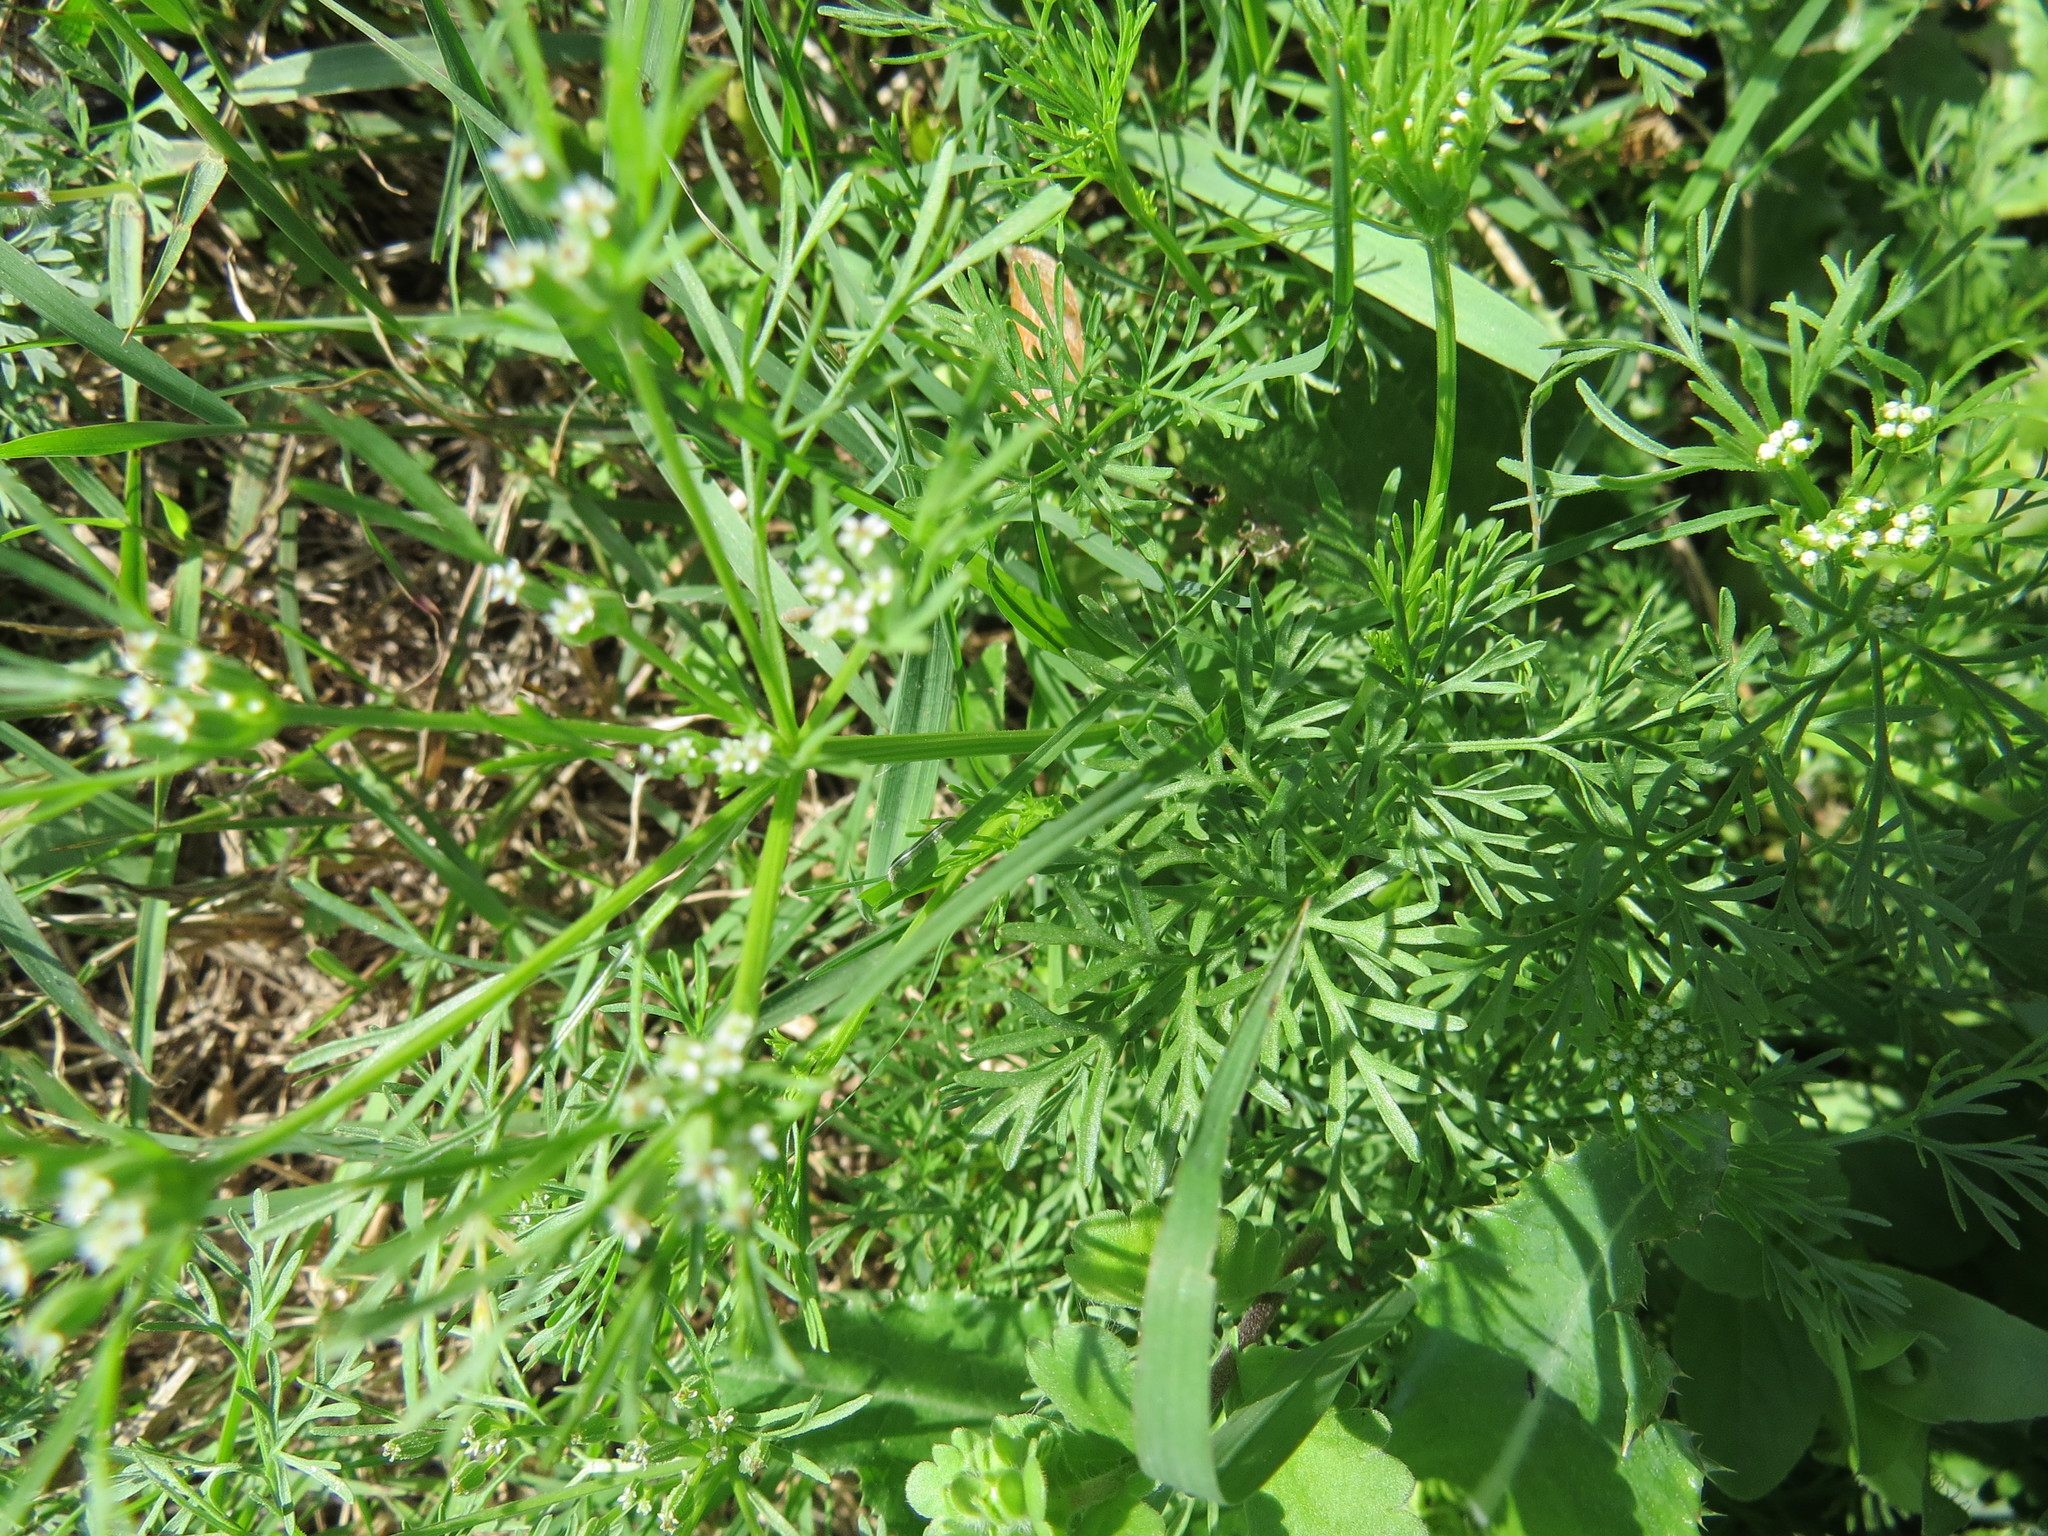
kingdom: Plantae
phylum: Tracheophyta
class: Magnoliopsida
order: Apiales
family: Apiaceae
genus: Ammoselinum
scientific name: Ammoselinum butleri
